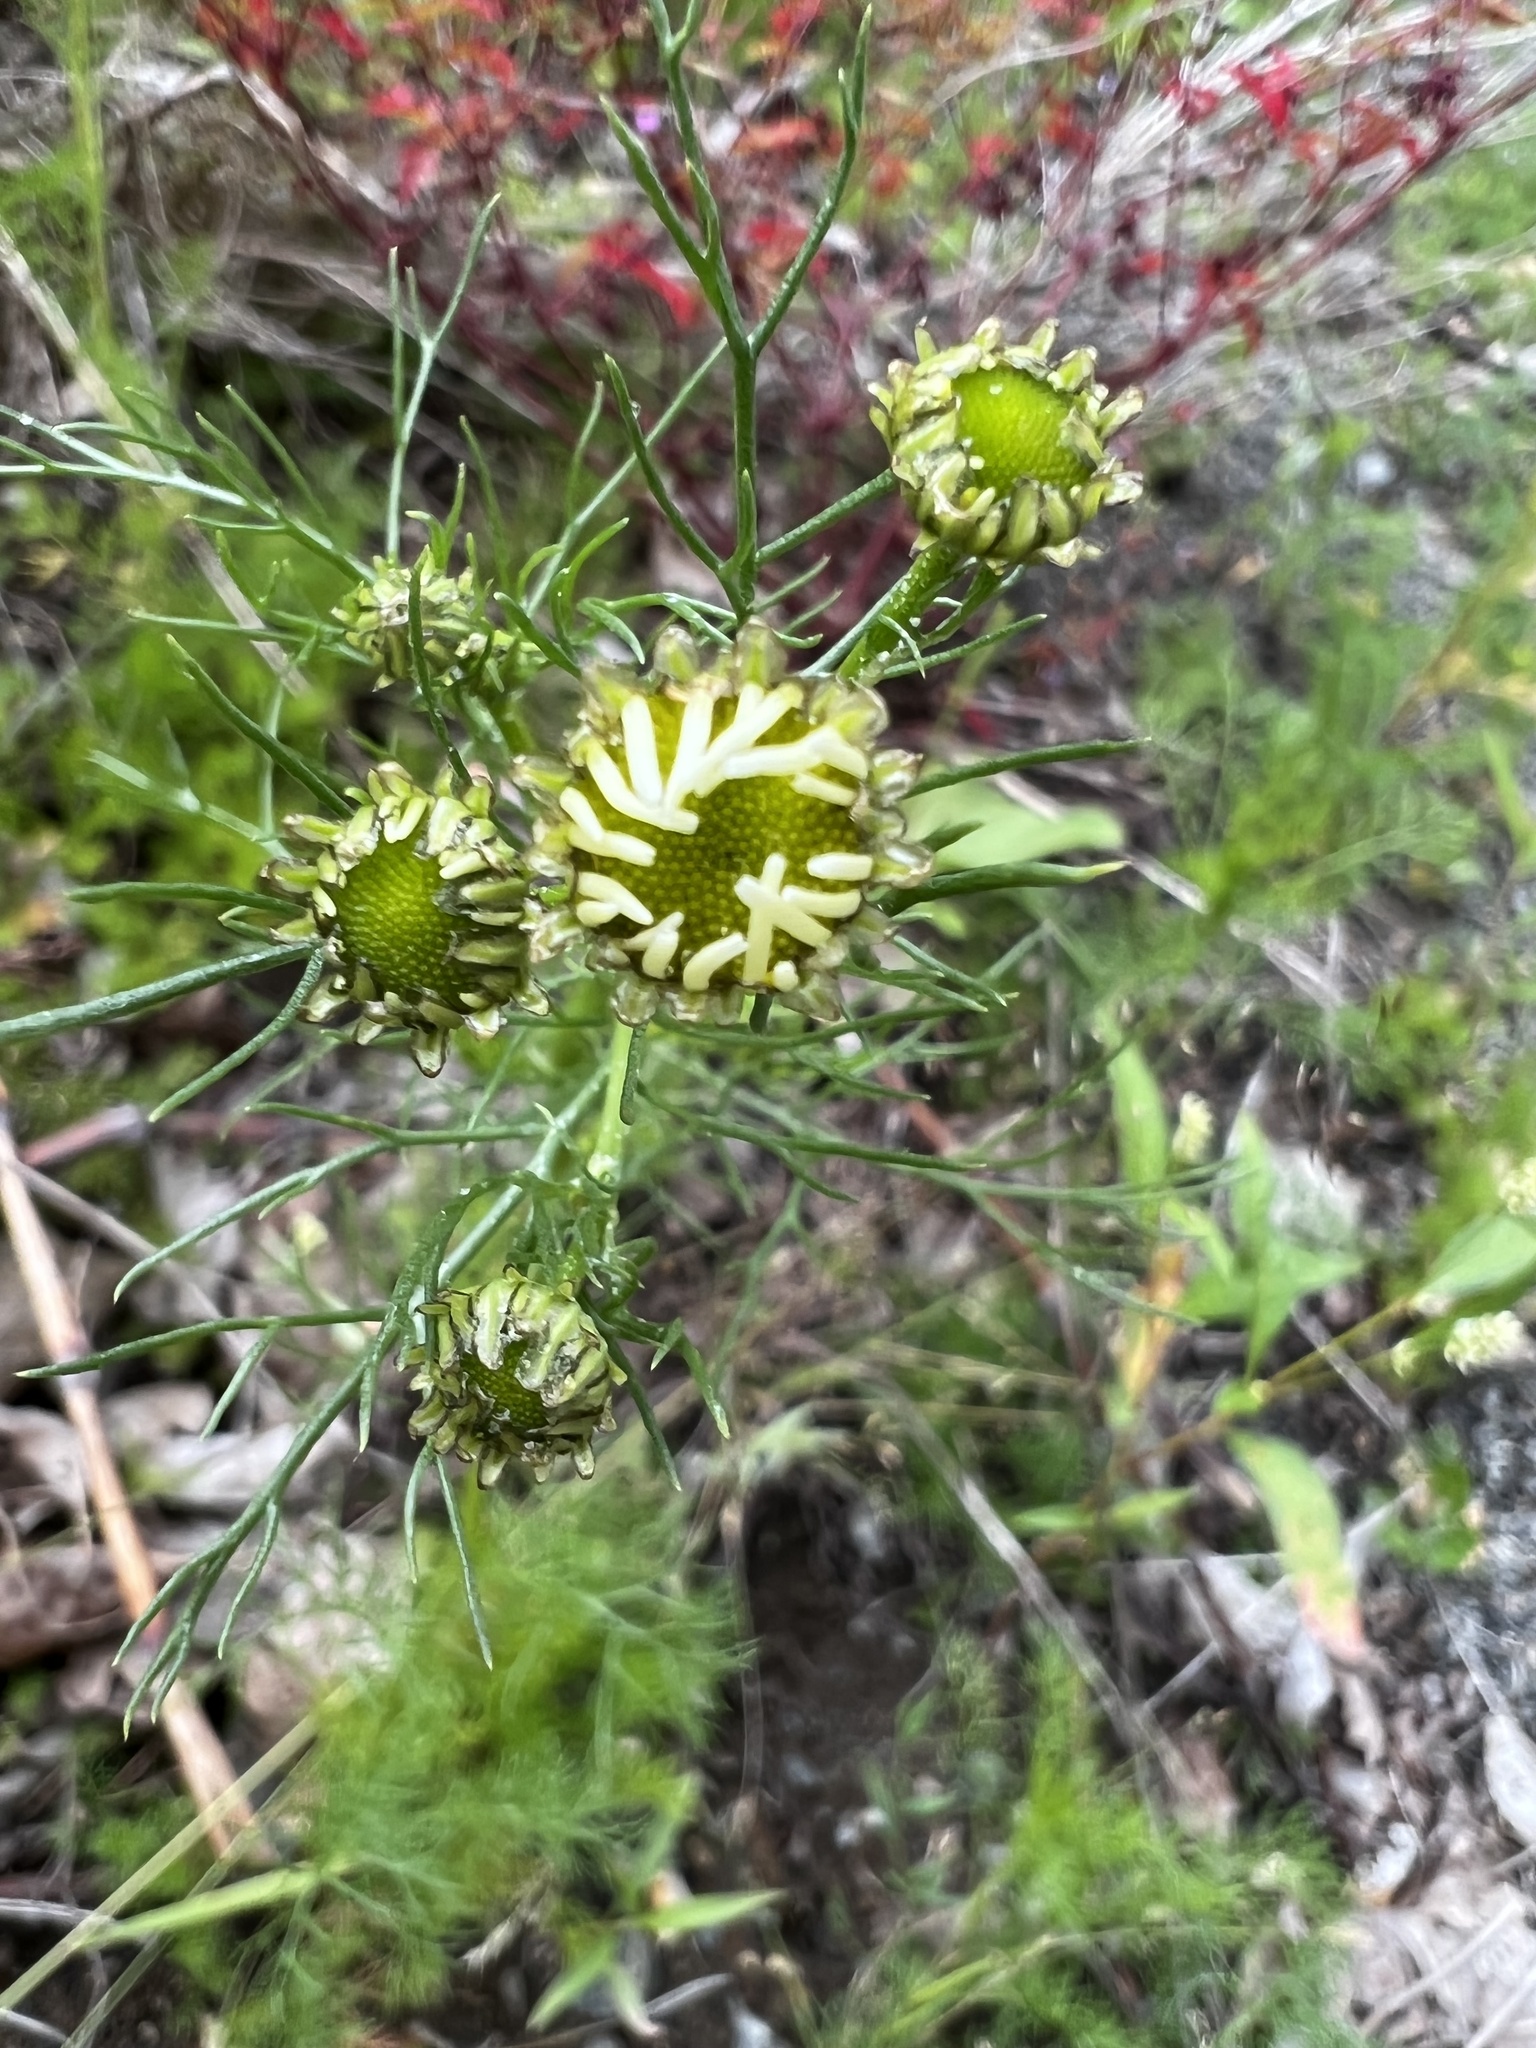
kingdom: Plantae
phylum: Tracheophyta
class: Magnoliopsida
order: Asterales
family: Asteraceae
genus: Tripleurospermum
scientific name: Tripleurospermum inodorum
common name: Scentless mayweed
